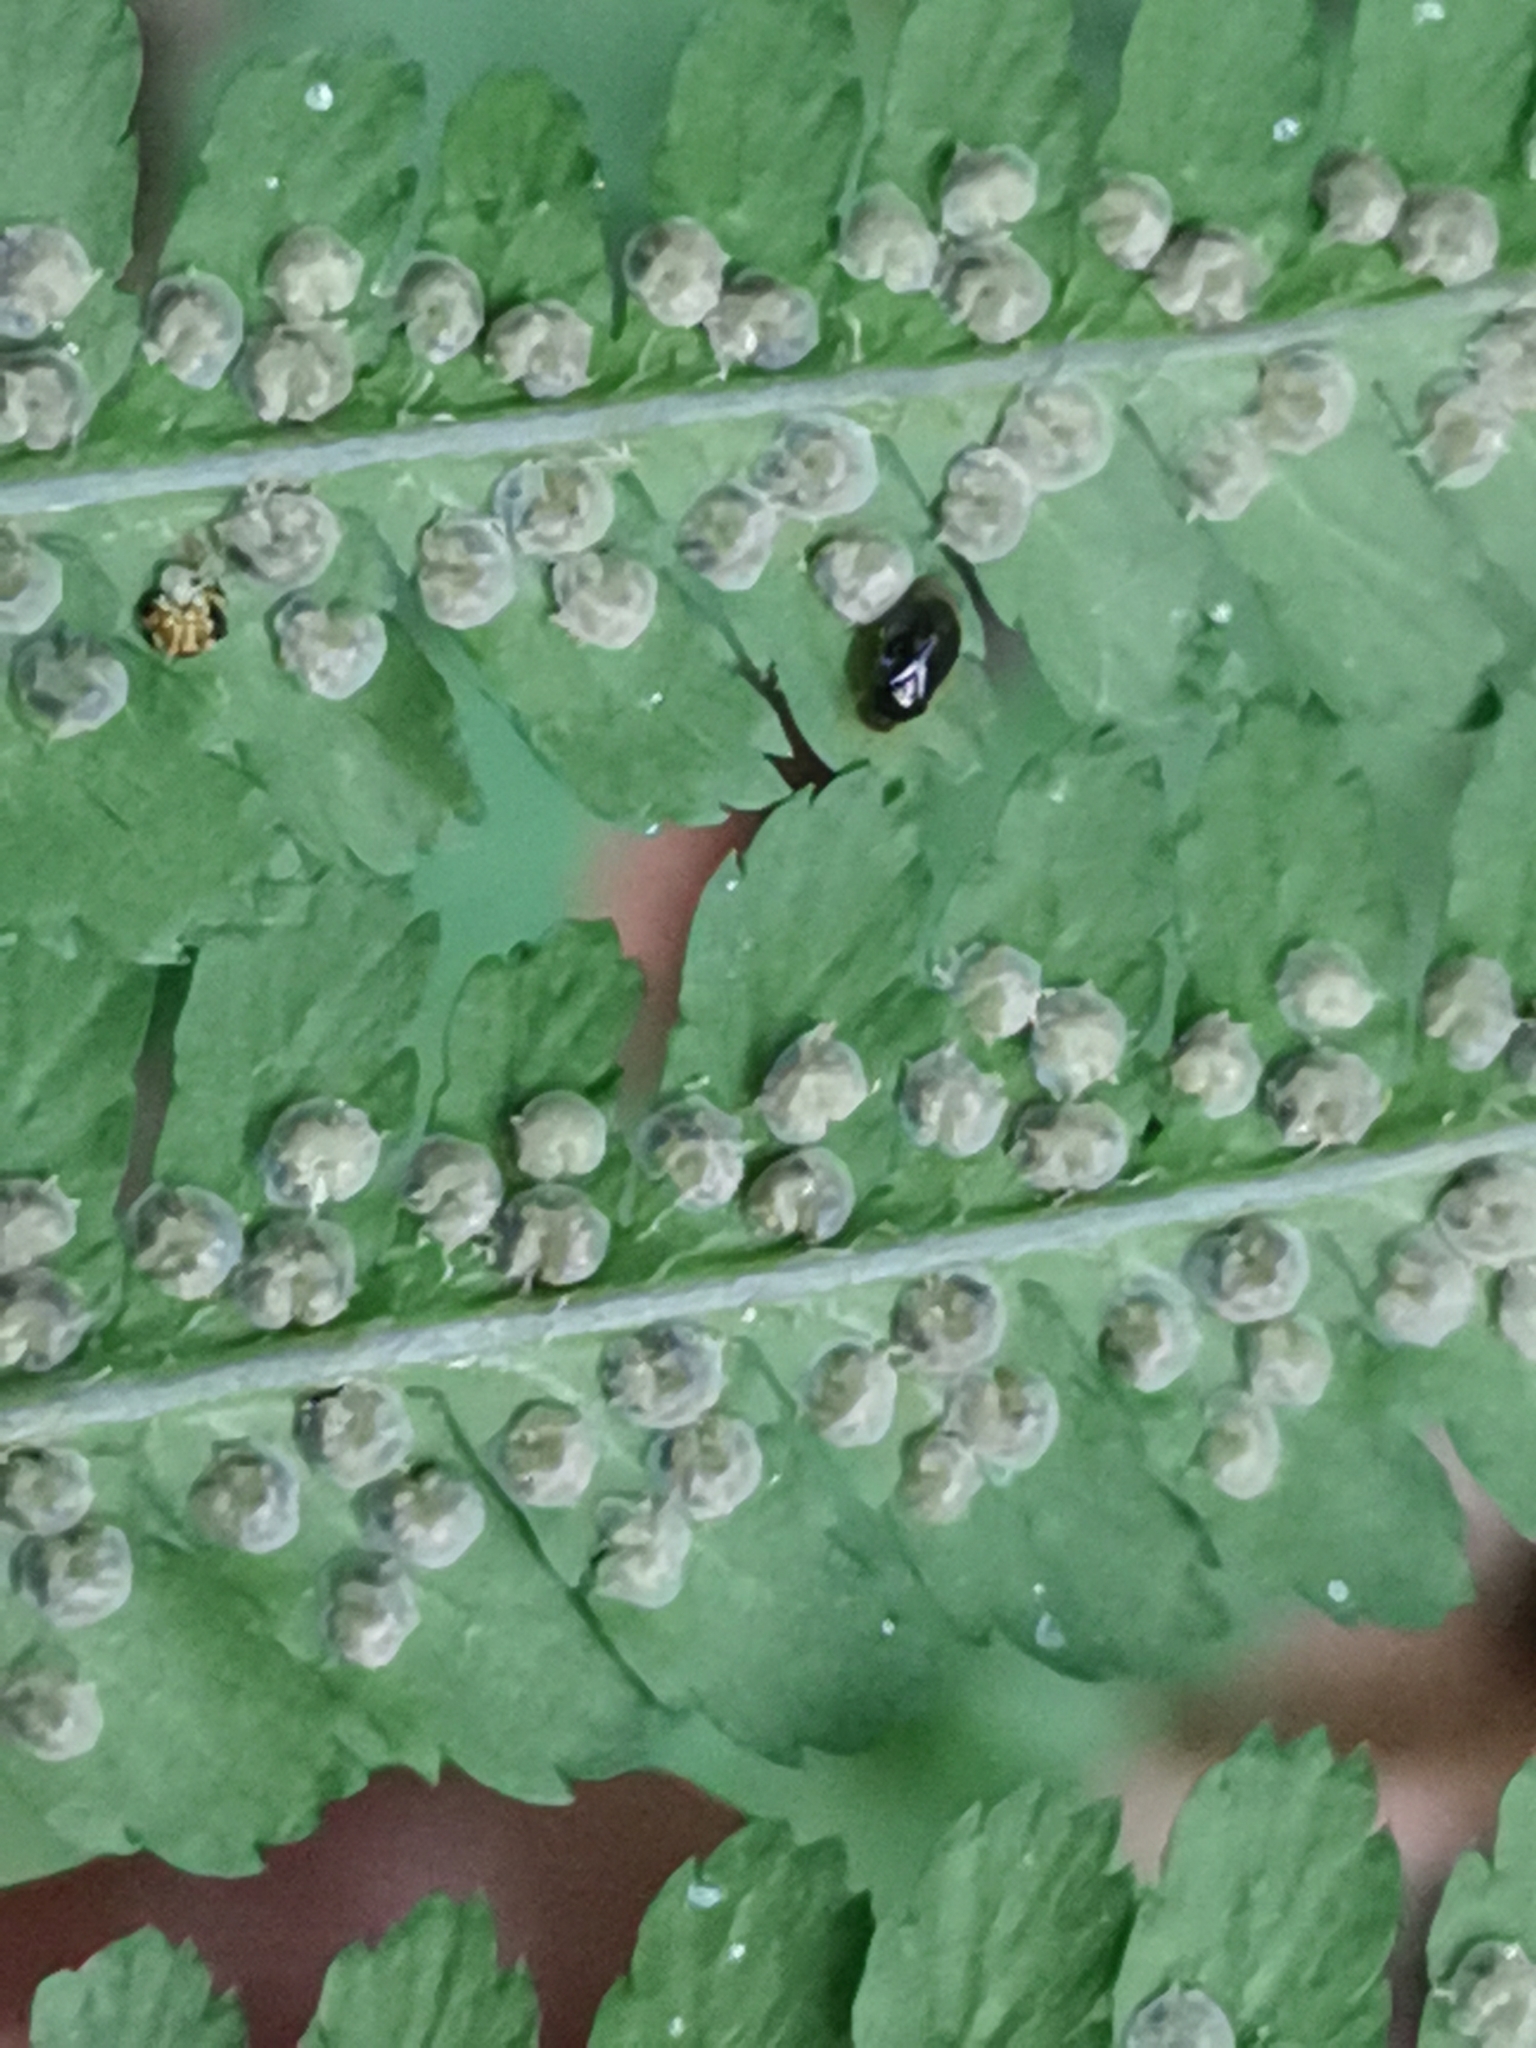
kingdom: Plantae
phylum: Tracheophyta
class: Polypodiopsida
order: Polypodiales
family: Dryopteridaceae
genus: Dryopteris
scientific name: Dryopteris filix-mas
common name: Male fern
